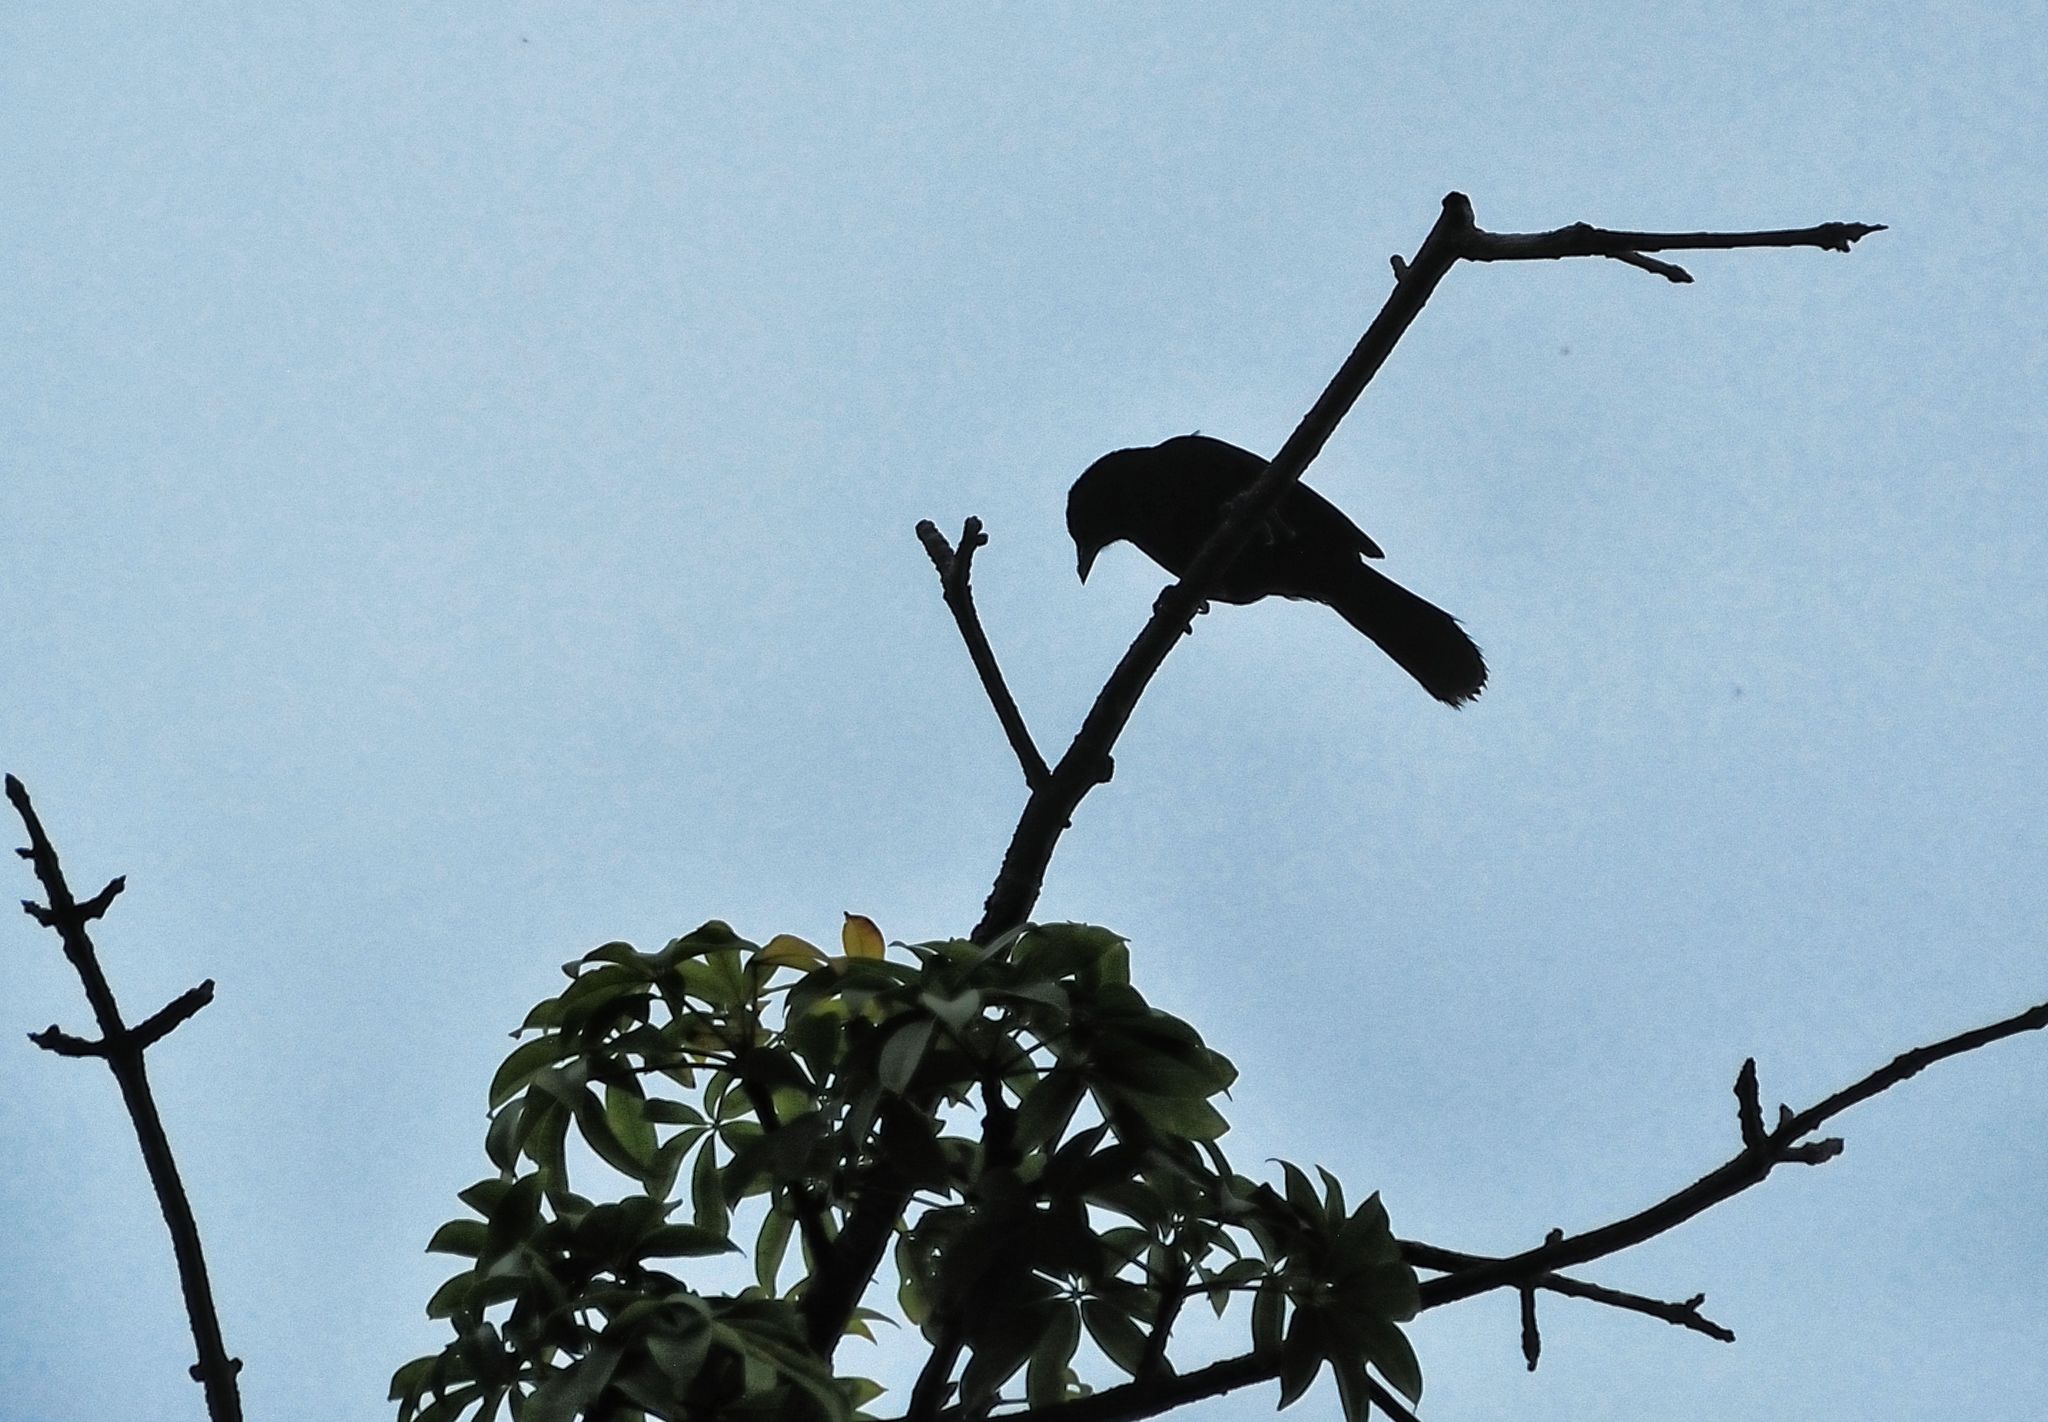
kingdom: Animalia
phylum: Chordata
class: Aves
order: Passeriformes
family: Icteridae
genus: Dives
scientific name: Dives dives
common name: Melodious blackbird
